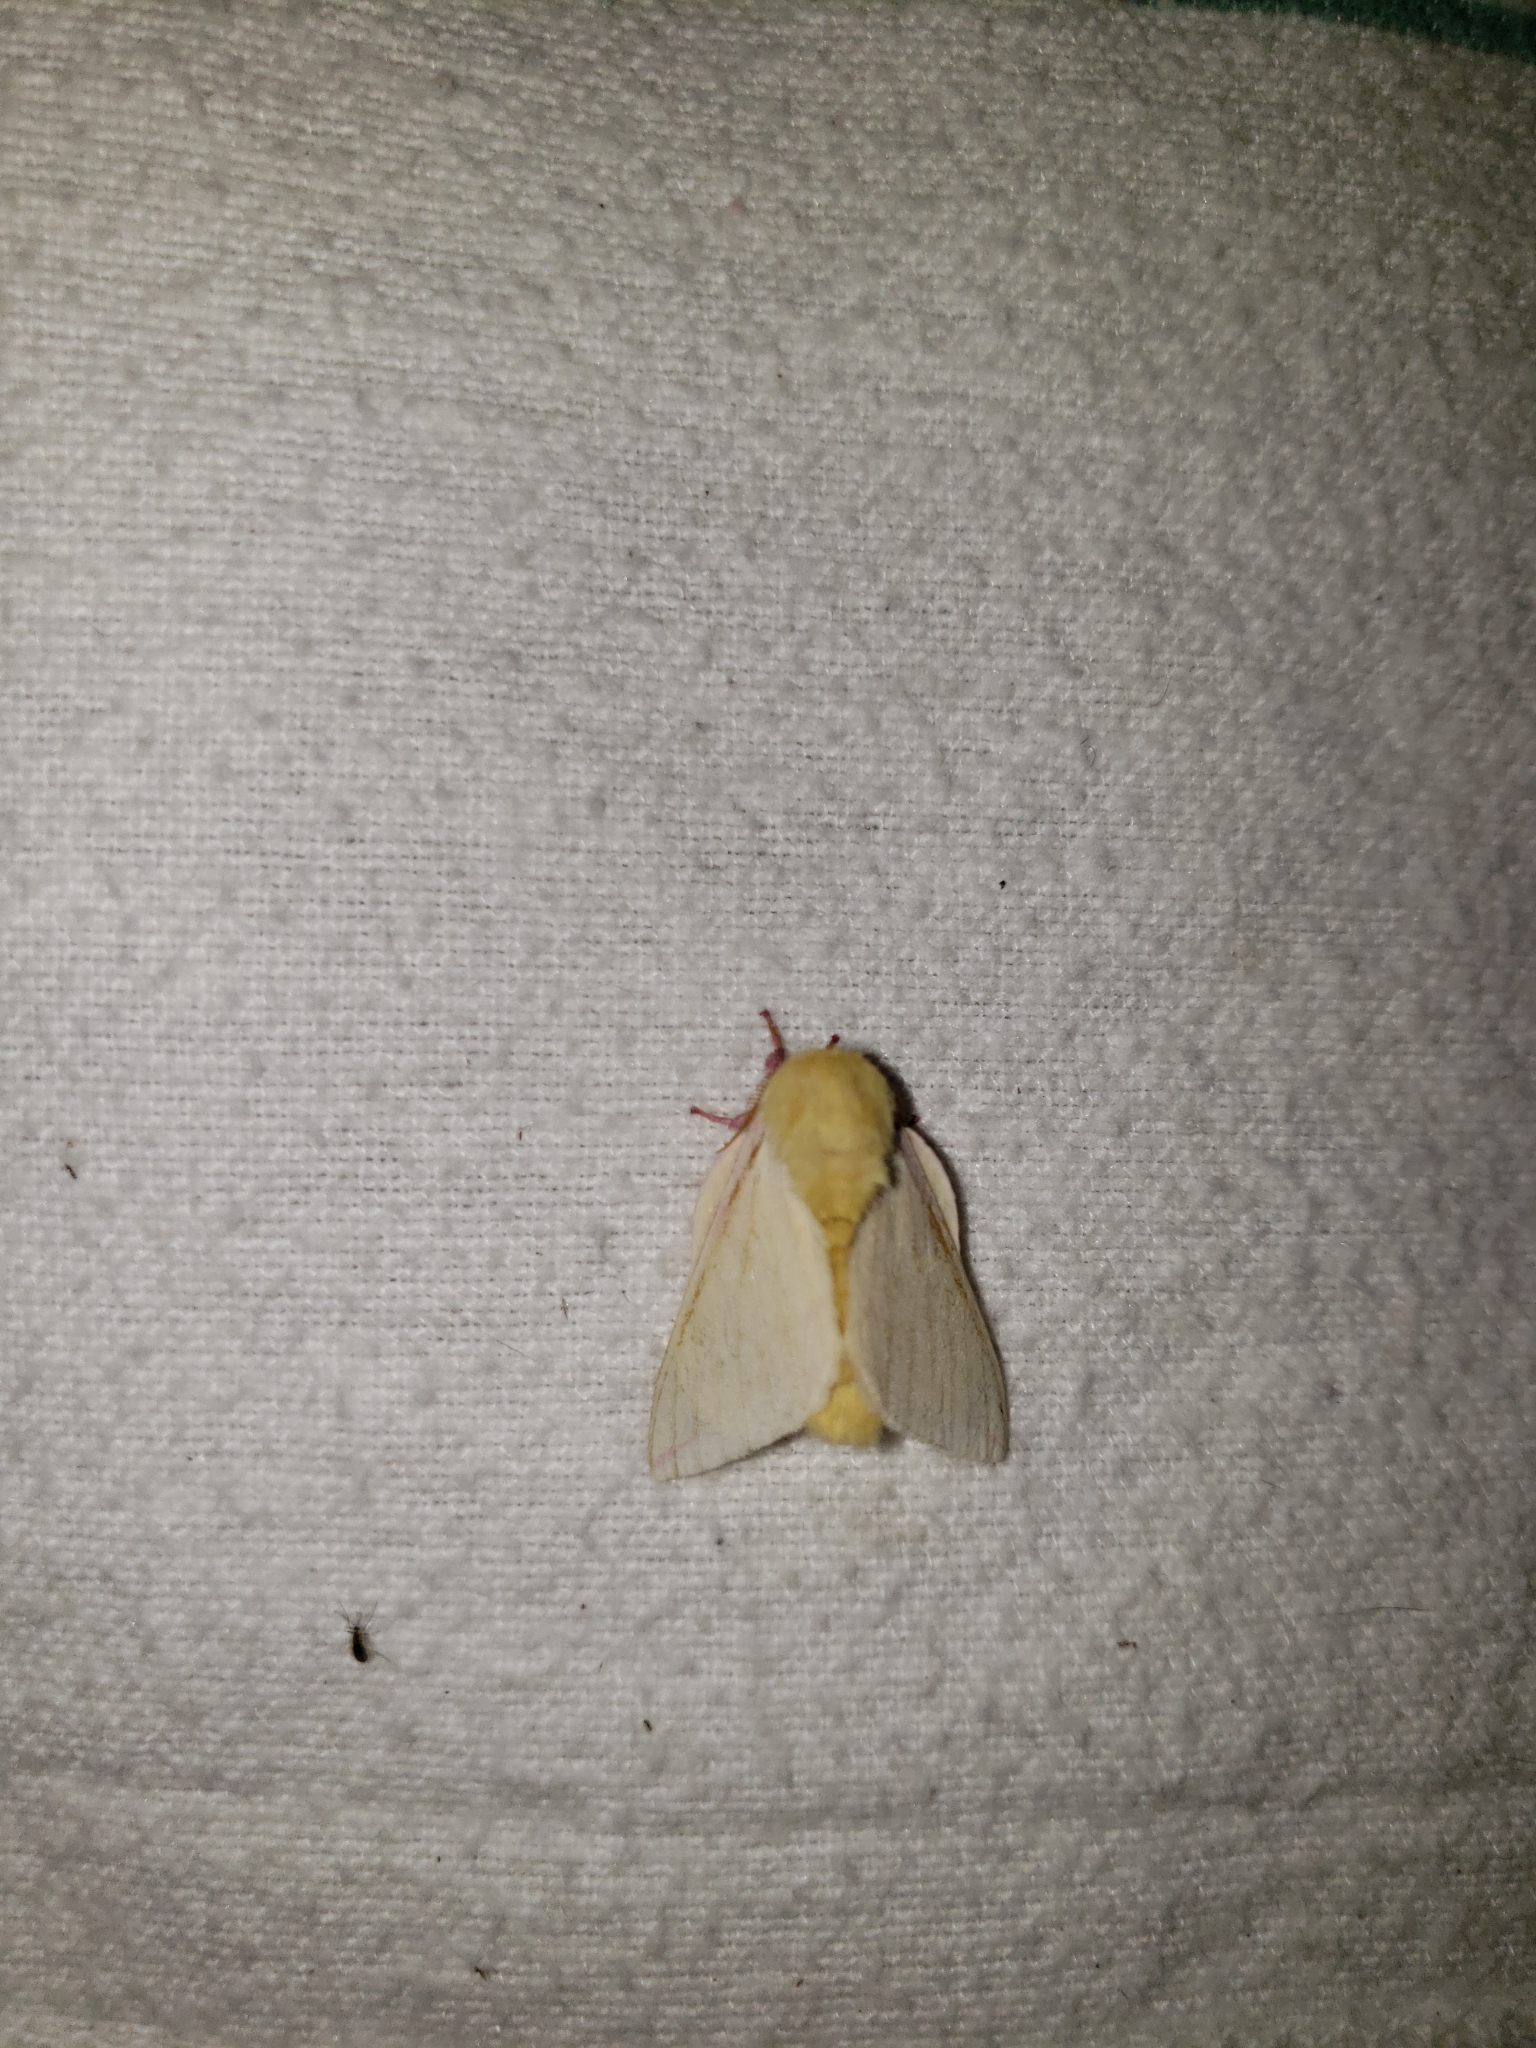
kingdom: Animalia
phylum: Arthropoda
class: Insecta
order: Lepidoptera
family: Saturniidae
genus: Dryocampa
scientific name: Dryocampa rubicunda
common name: Rosy maple moth
